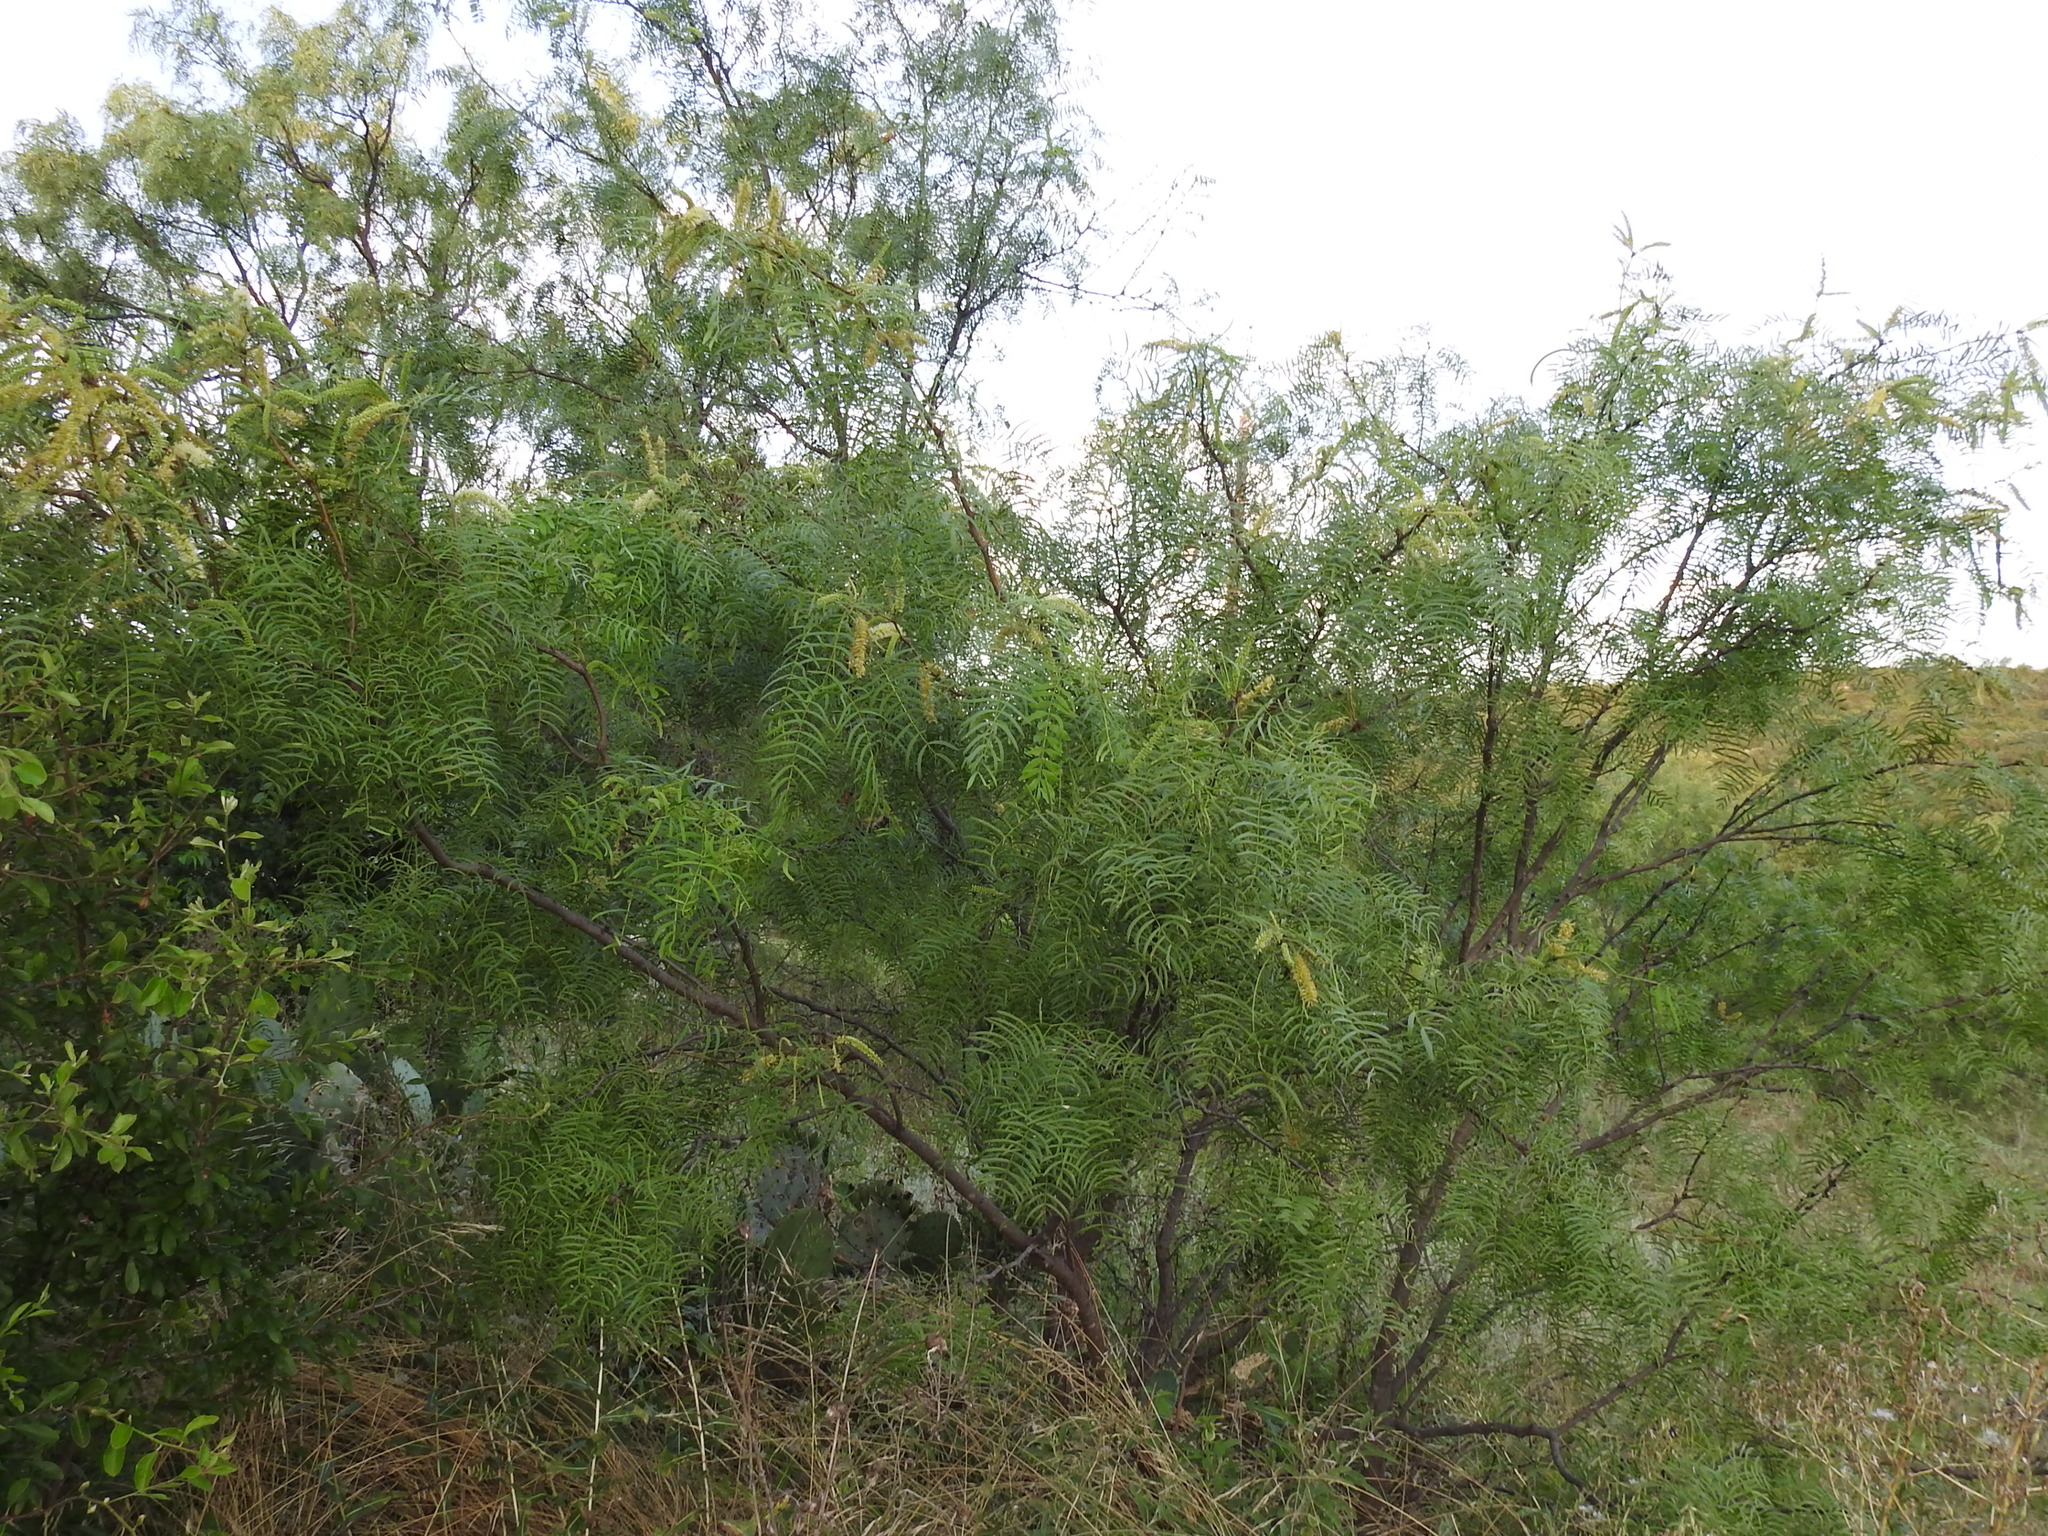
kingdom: Plantae
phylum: Tracheophyta
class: Magnoliopsida
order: Fabales
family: Fabaceae
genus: Prosopis
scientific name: Prosopis glandulosa
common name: Honey mesquite
